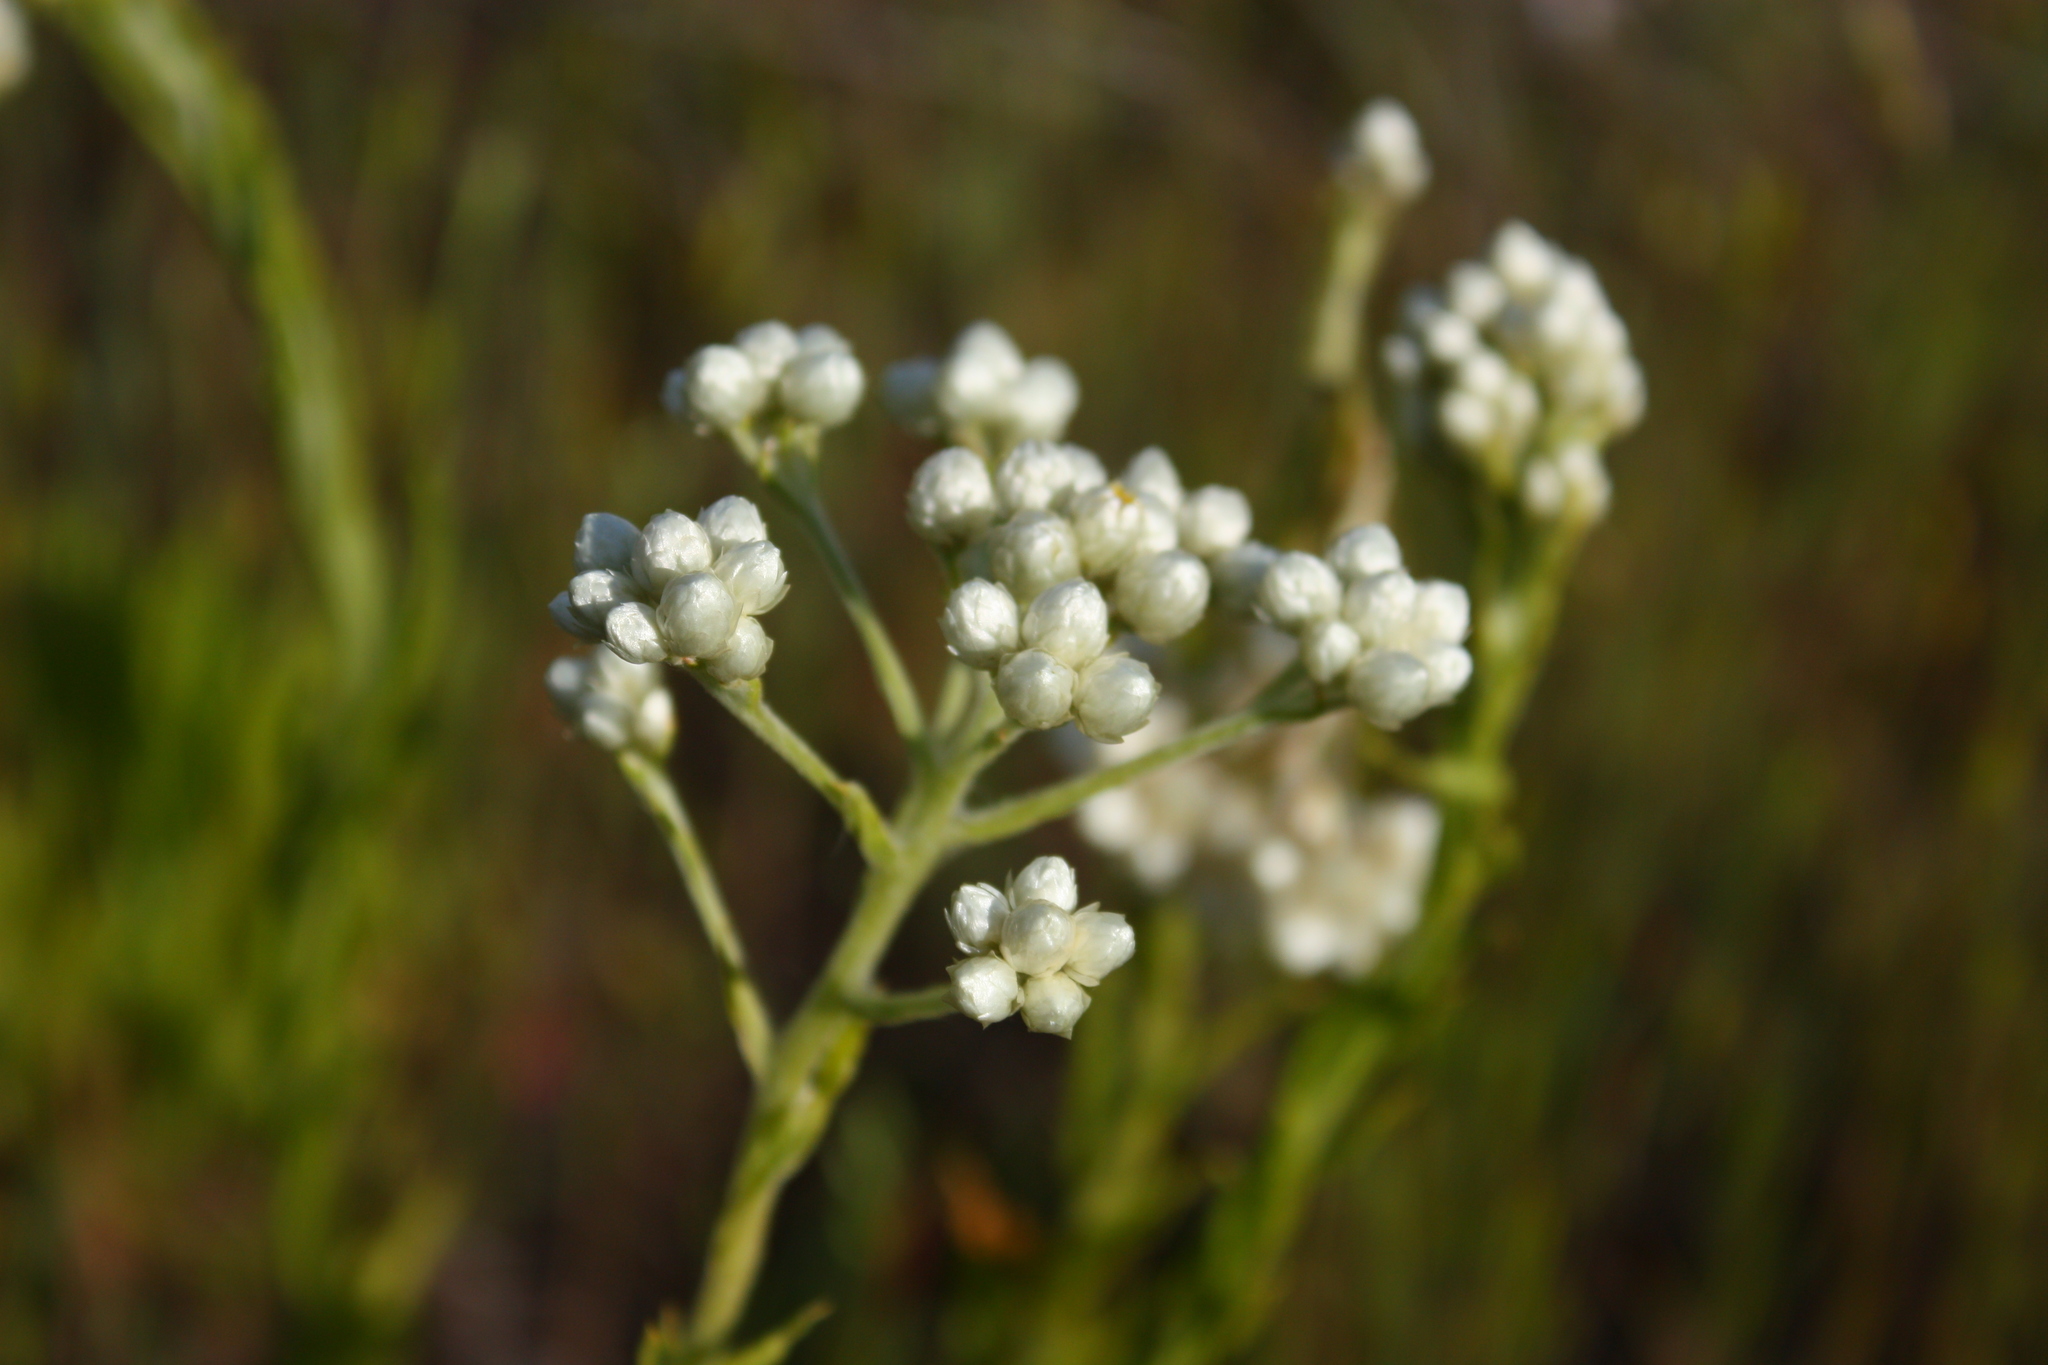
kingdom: Plantae
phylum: Tracheophyta
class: Magnoliopsida
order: Asterales
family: Asteraceae
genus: Pseudognaphalium
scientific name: Pseudognaphalium californicum
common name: California rabbit-tobacco
